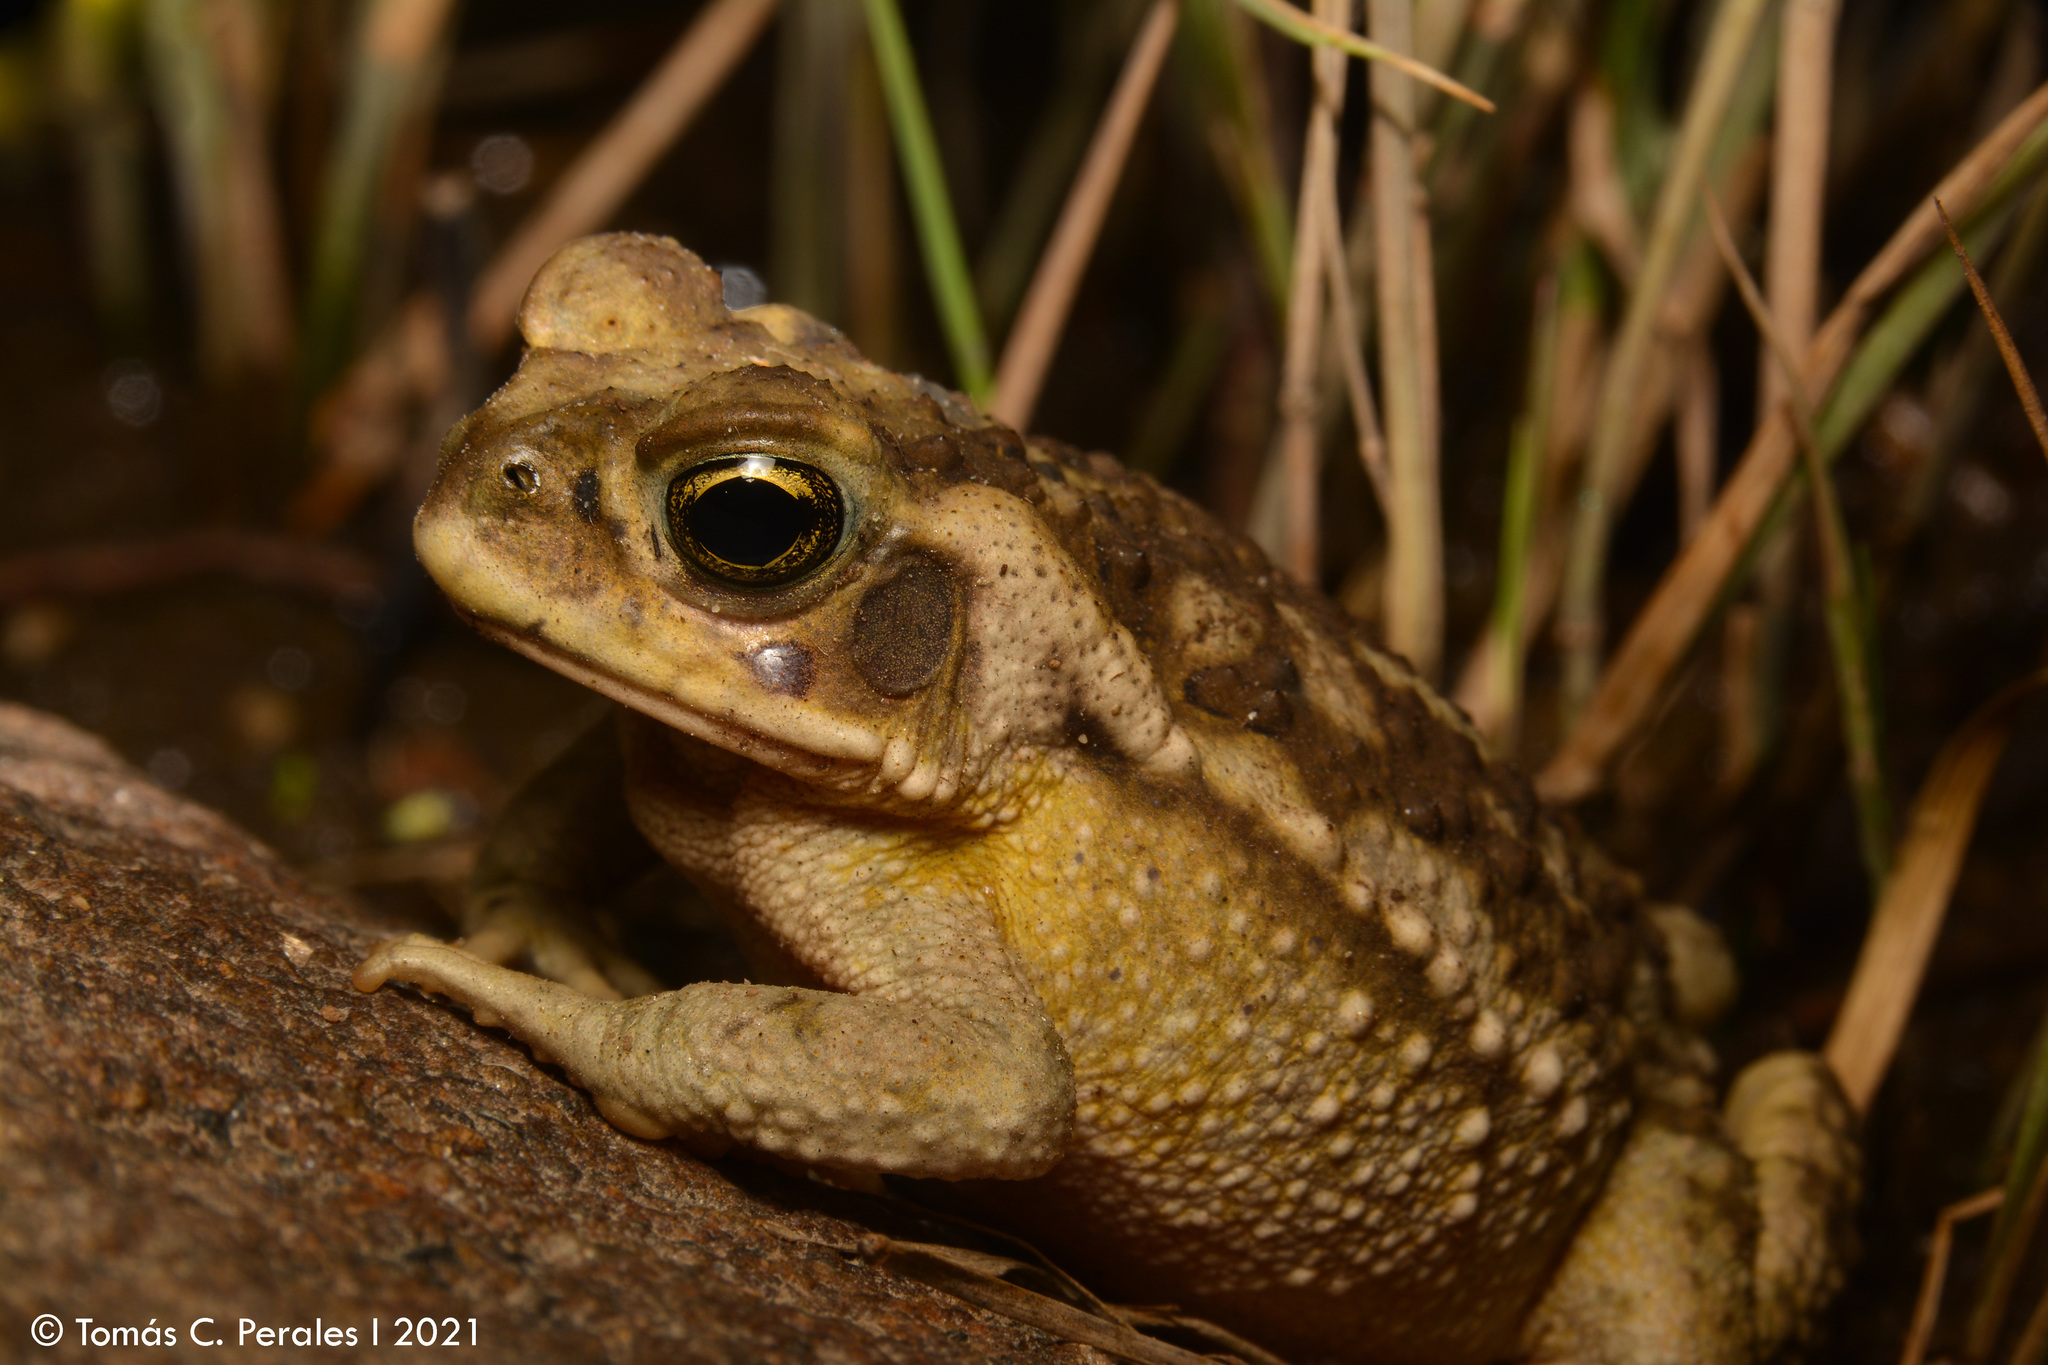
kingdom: Animalia
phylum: Chordata
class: Amphibia
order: Anura
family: Bufonidae
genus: Rhinella
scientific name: Rhinella arenarum
